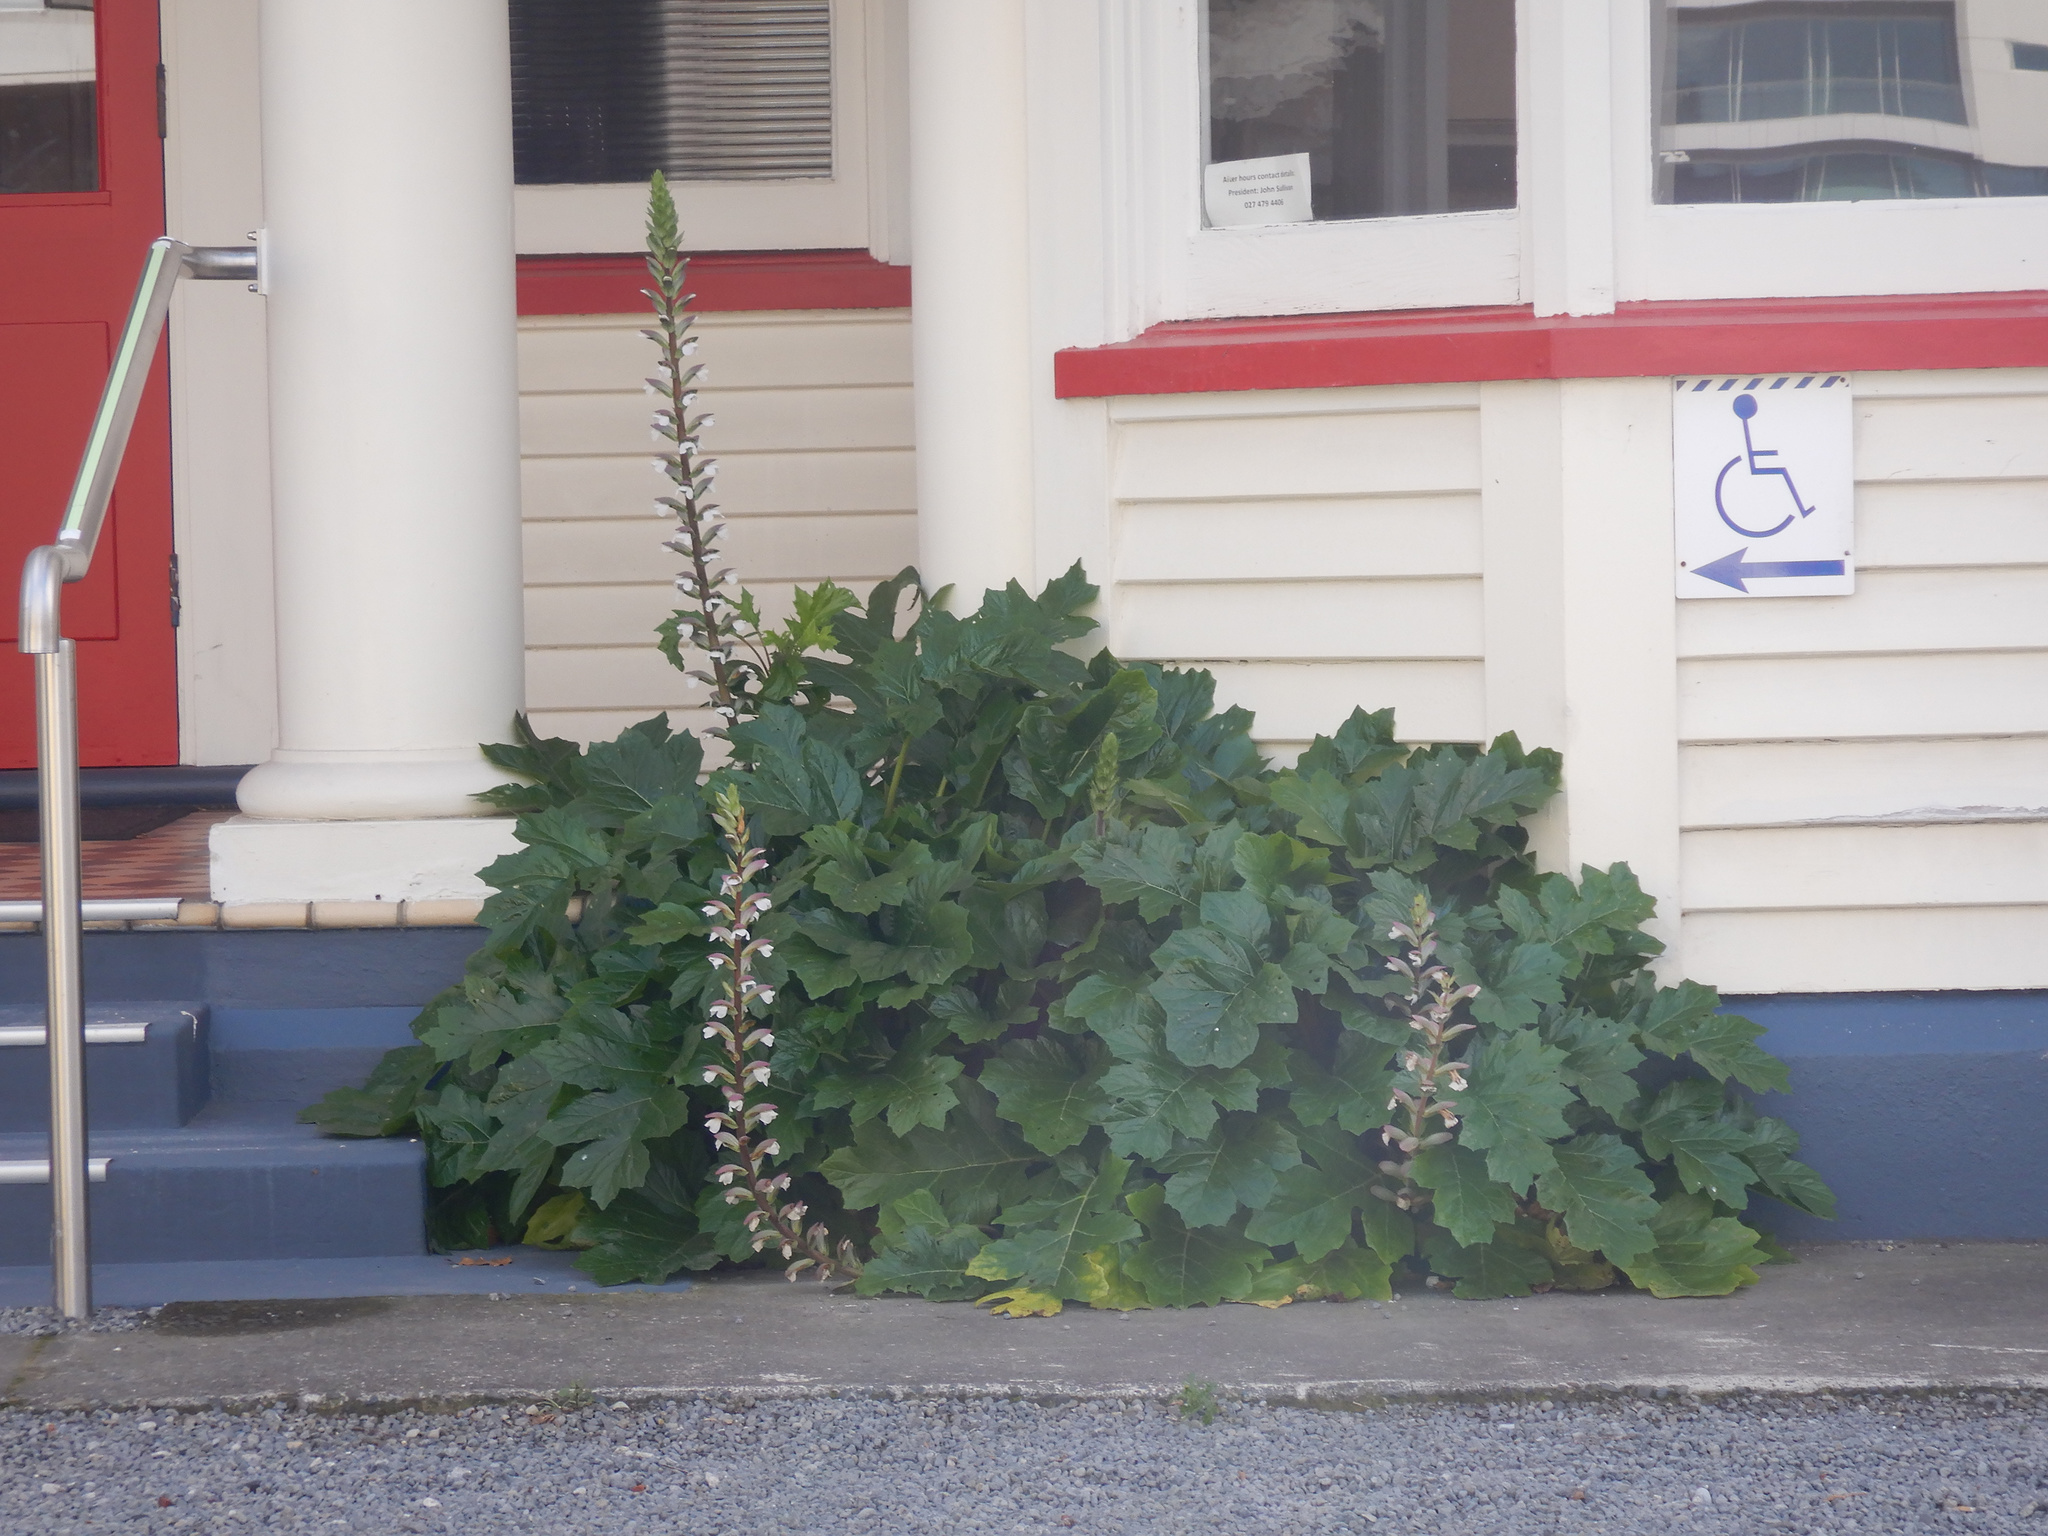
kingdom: Plantae
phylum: Tracheophyta
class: Magnoliopsida
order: Lamiales
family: Acanthaceae
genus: Acanthus
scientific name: Acanthus mollis
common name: Bear's-breech
